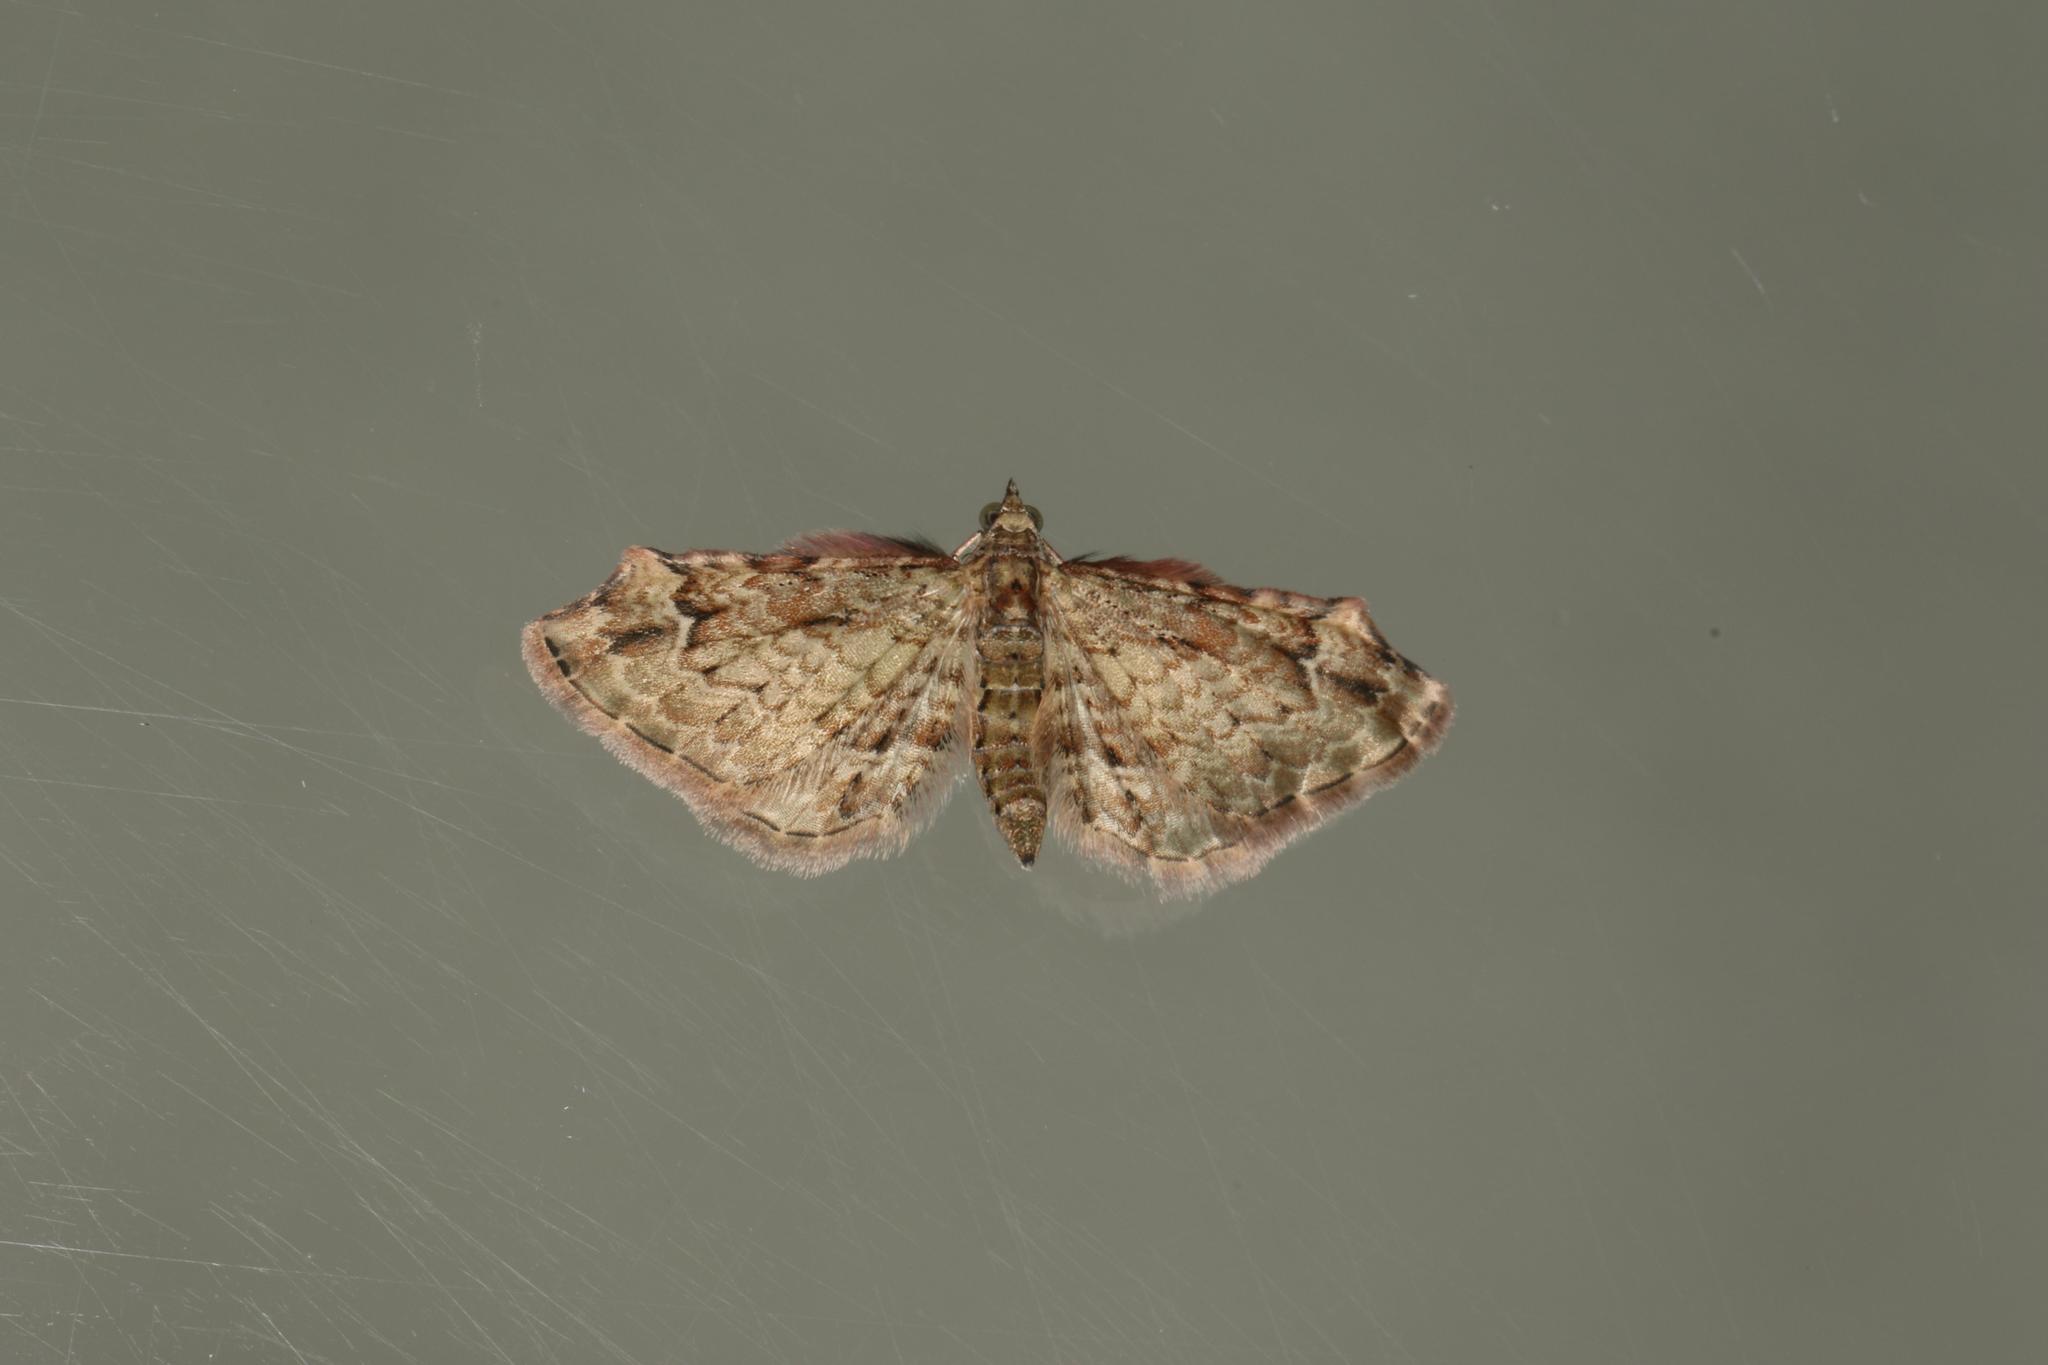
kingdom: Animalia
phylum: Arthropoda
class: Insecta
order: Lepidoptera
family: Geometridae
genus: Chloroclystis
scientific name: Chloroclystis approximata
